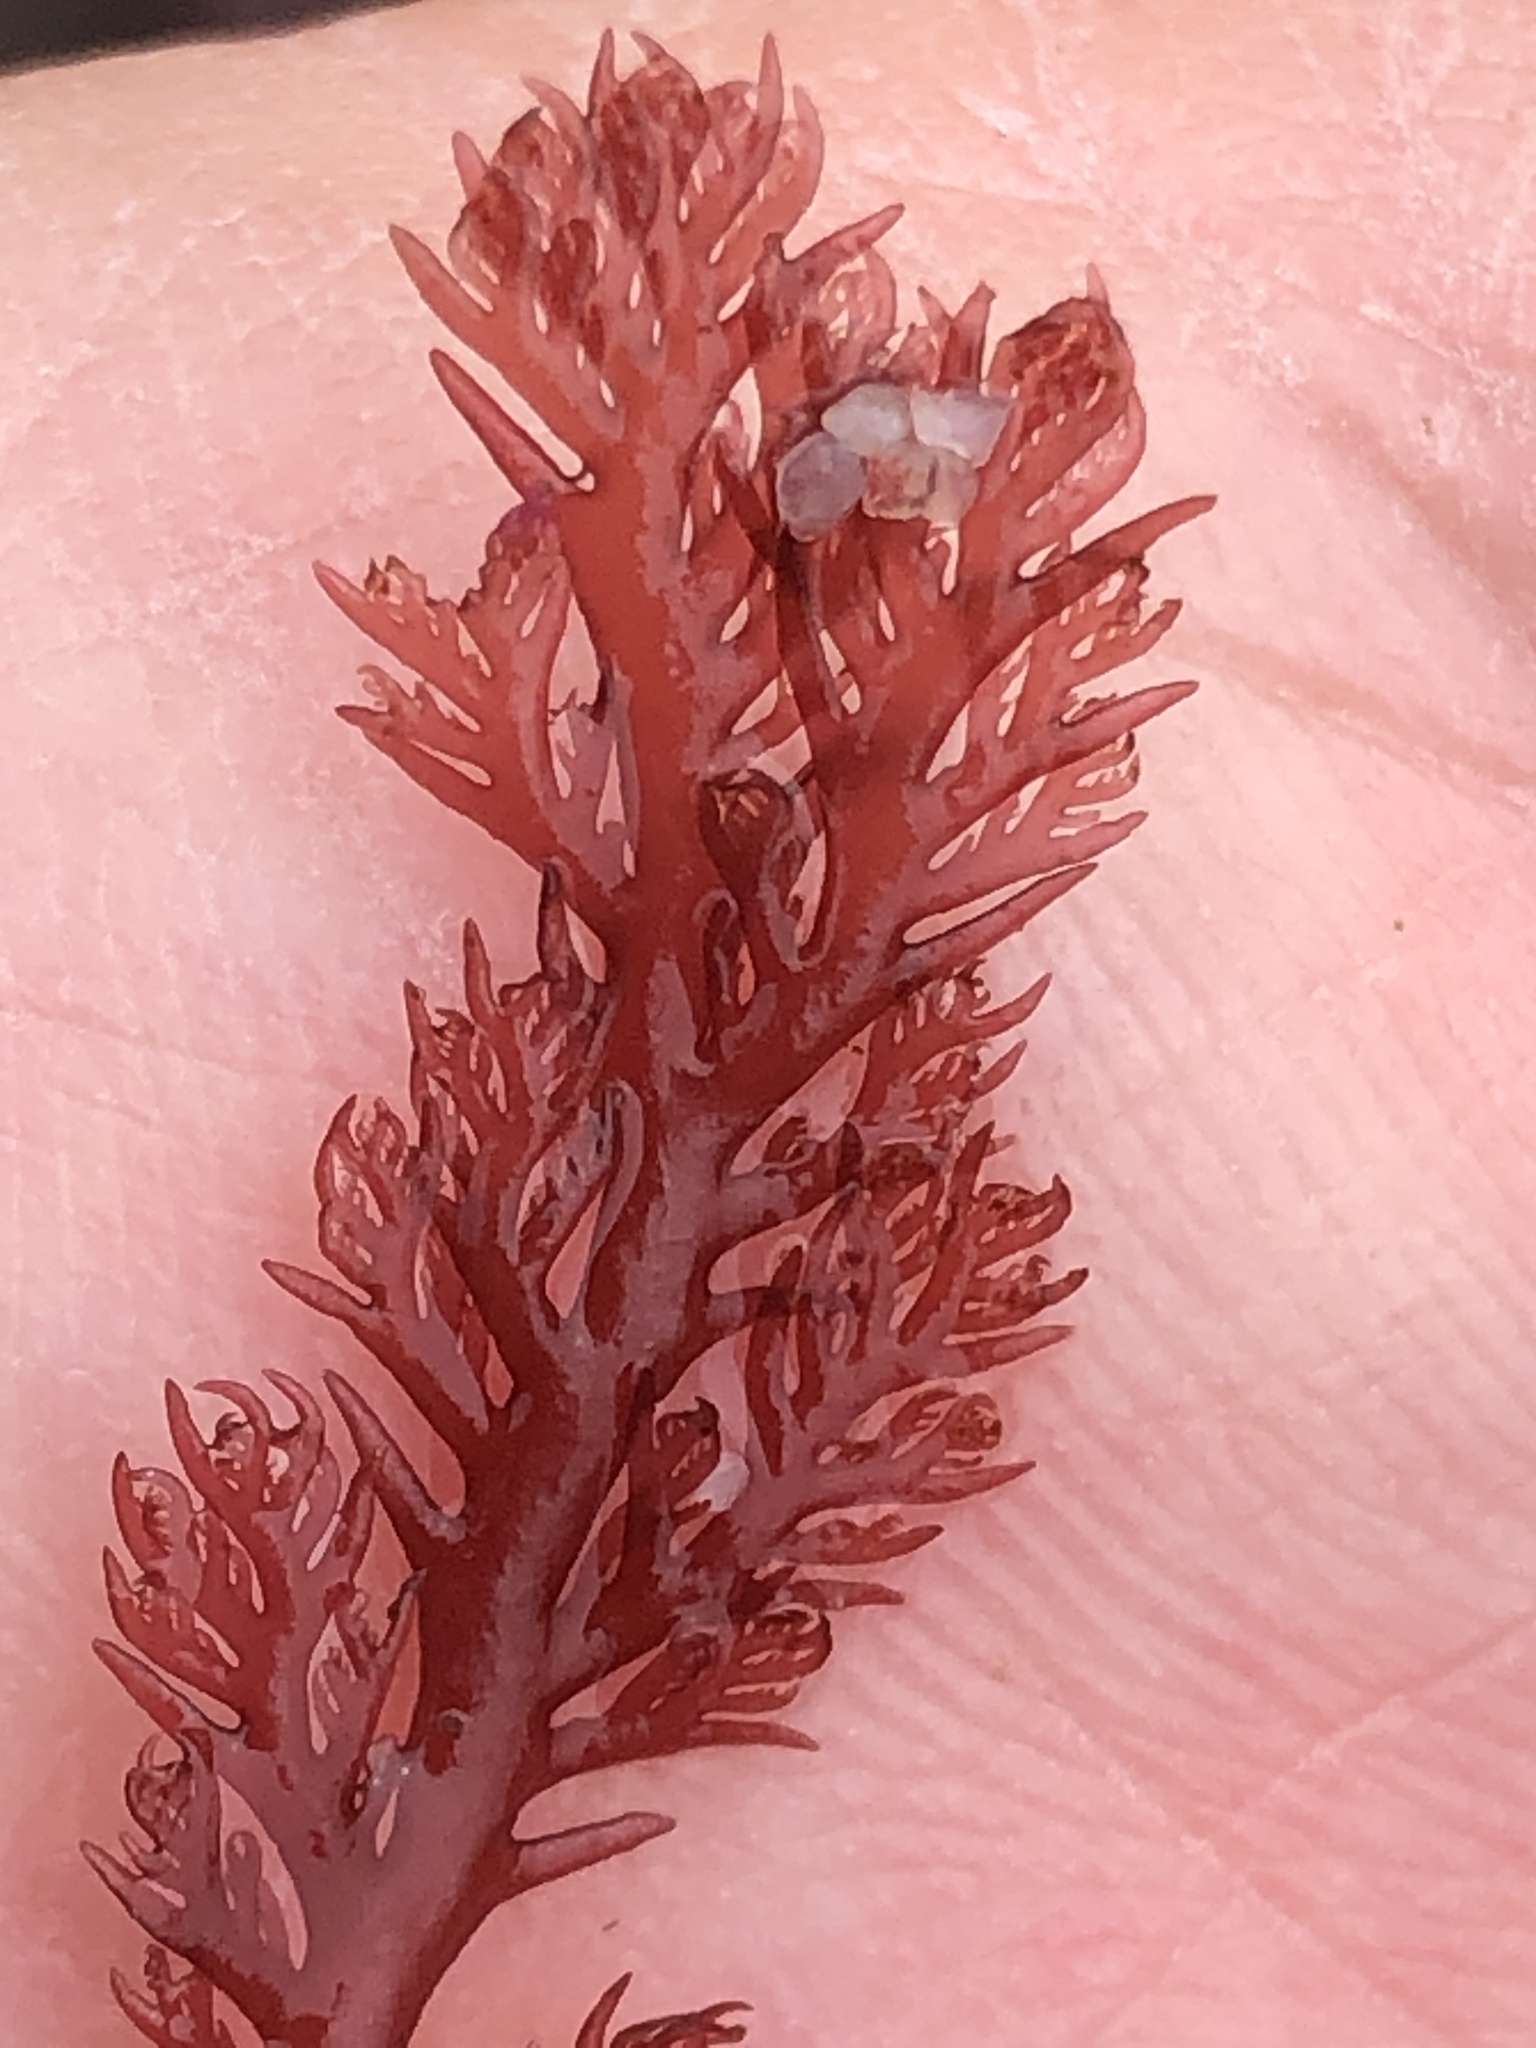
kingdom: Plantae
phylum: Rhodophyta
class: Florideophyceae
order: Plocamiales
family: Plocamiaceae
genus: Plocamium
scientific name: Plocamium cartilagineum
